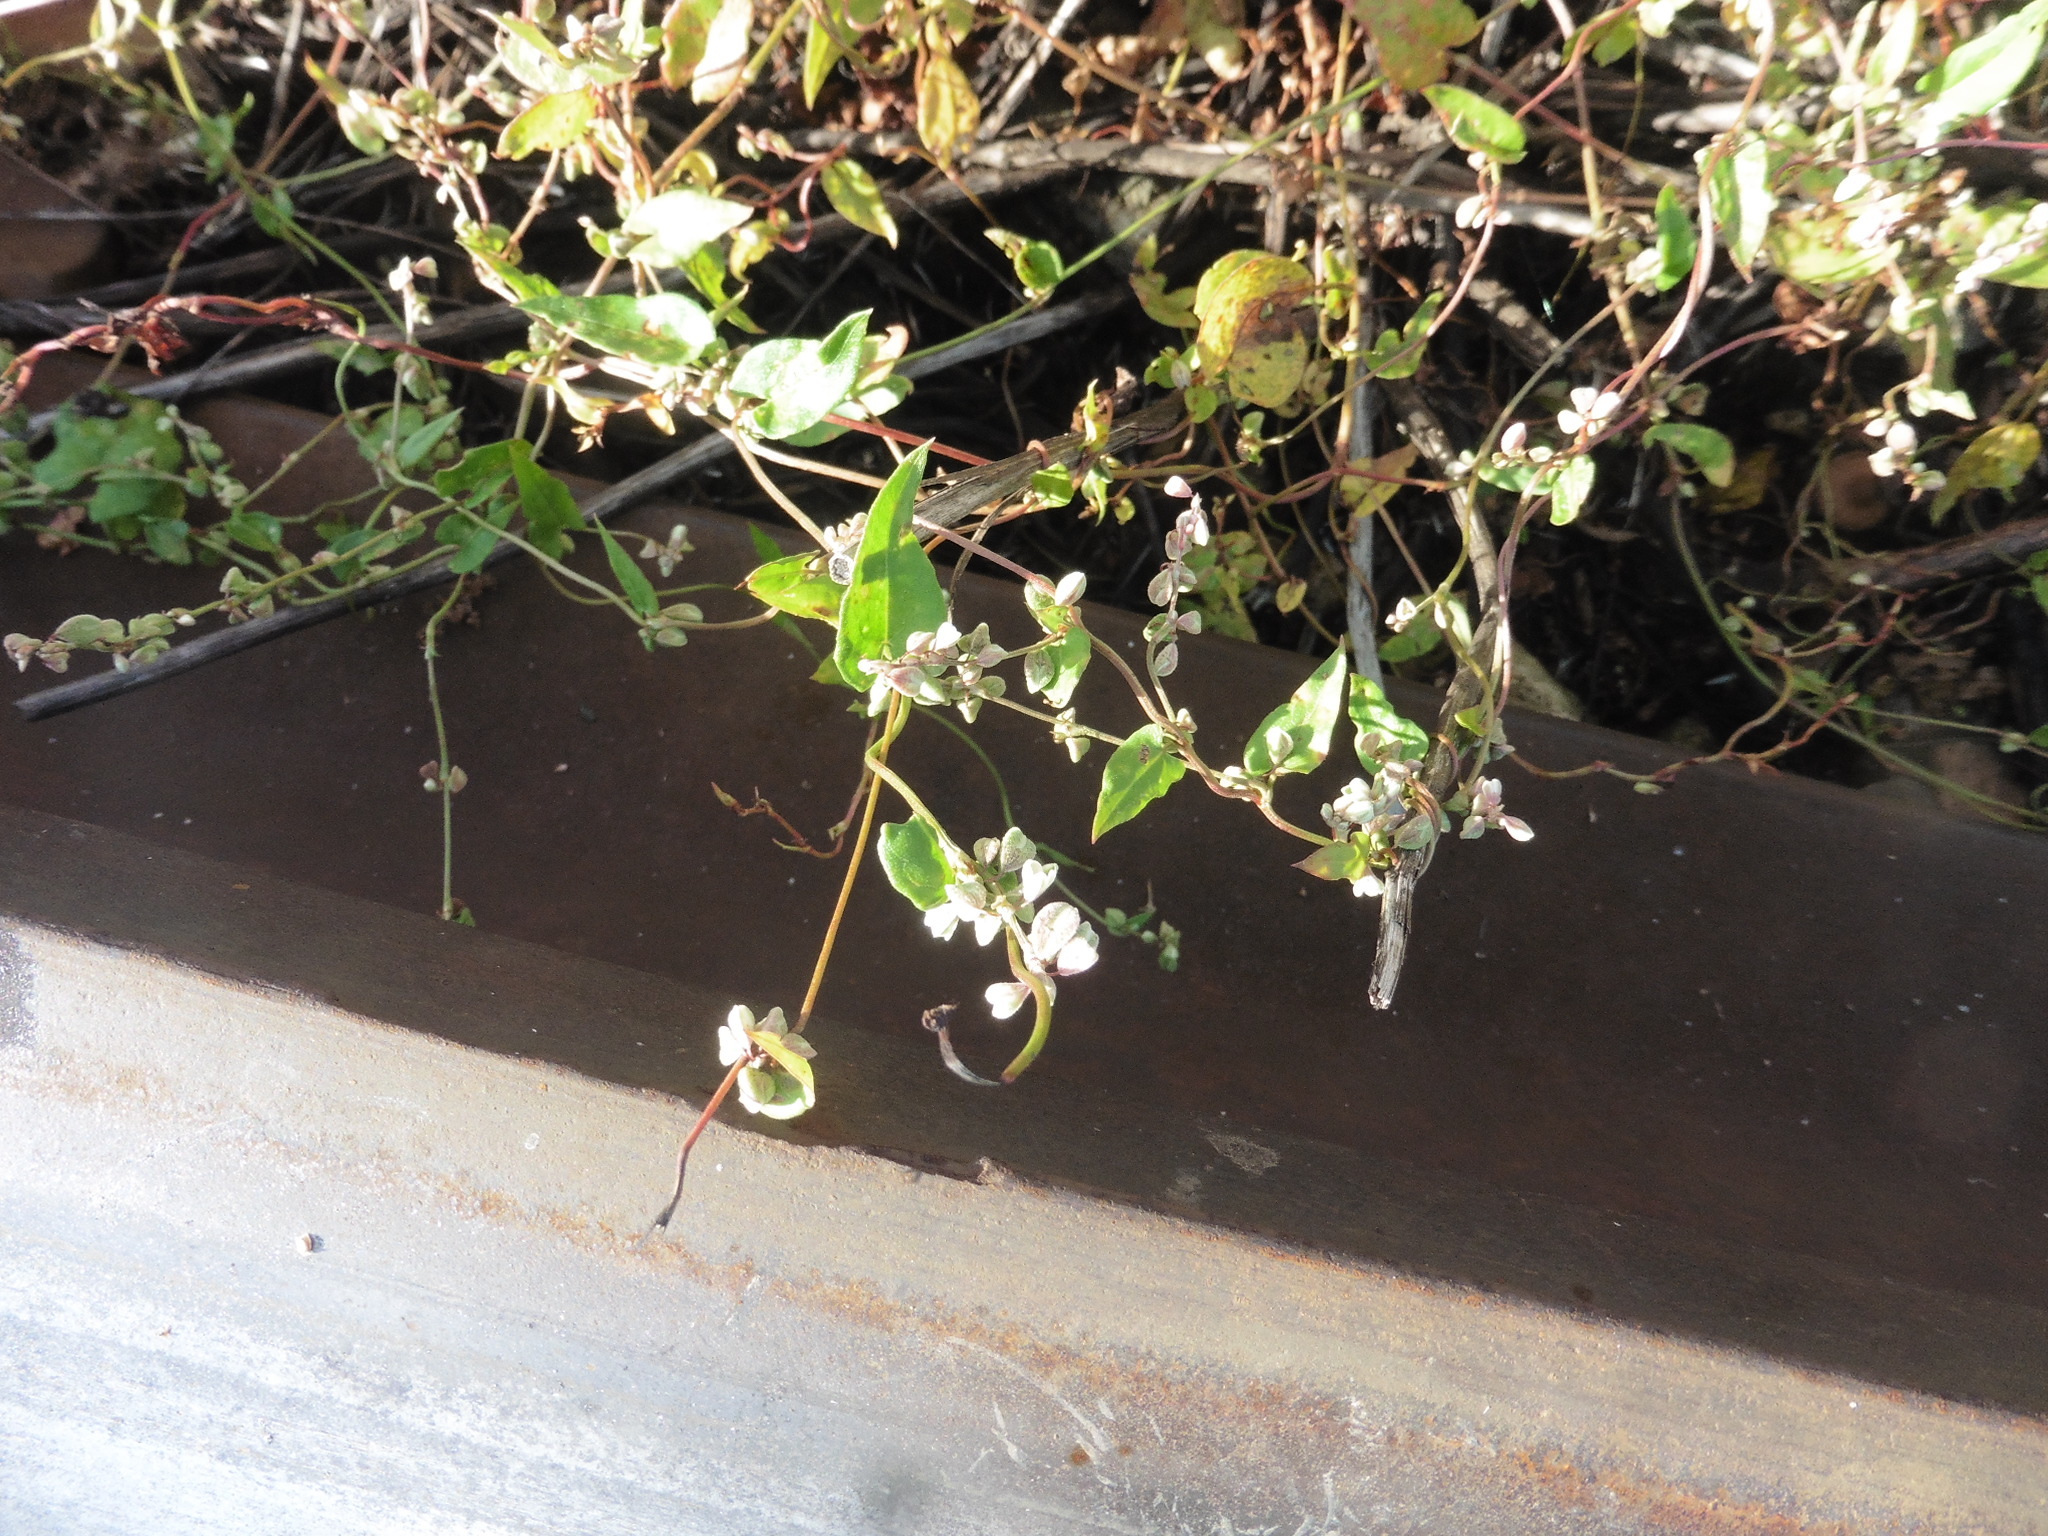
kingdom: Plantae
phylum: Tracheophyta
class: Magnoliopsida
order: Caryophyllales
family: Polygonaceae
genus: Fallopia
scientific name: Fallopia convolvulus
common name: Black bindweed
